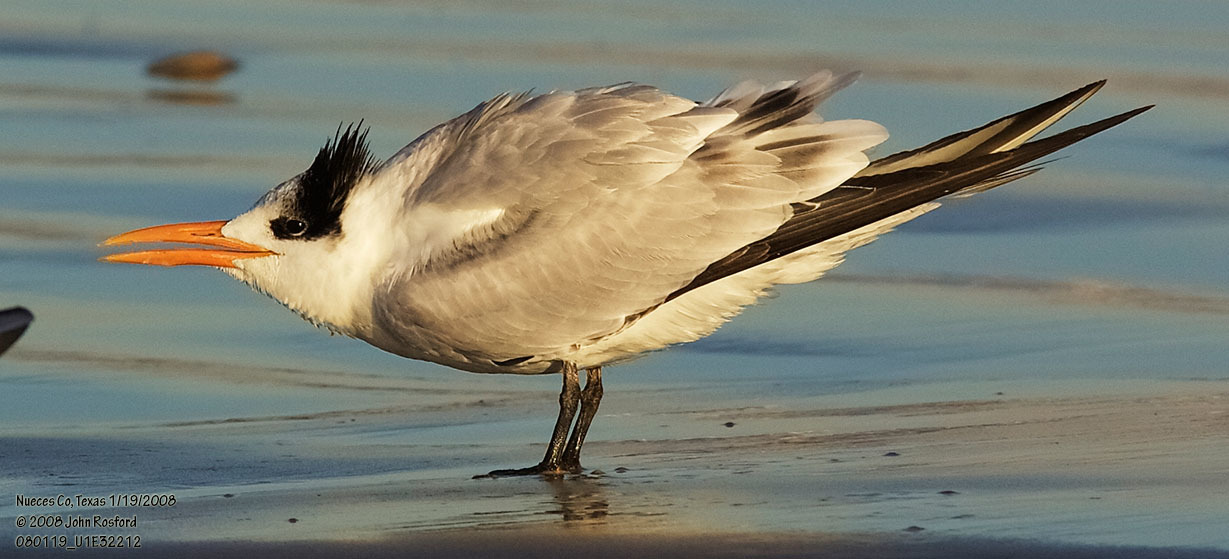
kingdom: Animalia
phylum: Chordata
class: Aves
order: Charadriiformes
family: Laridae
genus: Thalasseus
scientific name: Thalasseus maximus
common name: Royal tern
